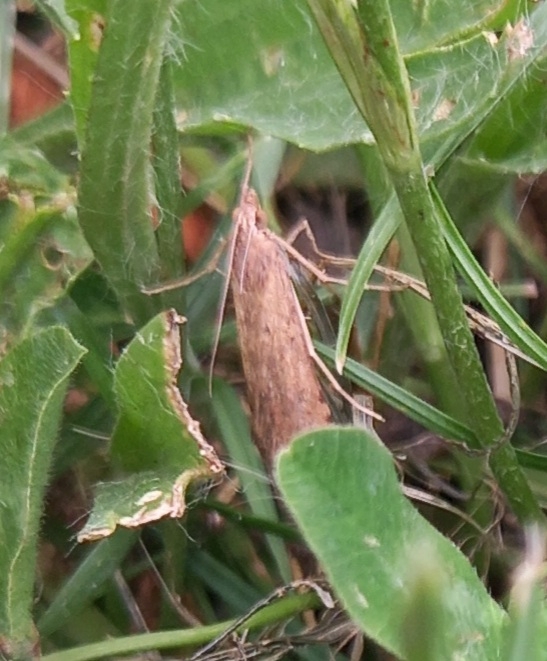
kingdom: Animalia
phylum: Arthropoda
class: Insecta
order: Lepidoptera
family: Crambidae
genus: Nomophila
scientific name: Nomophila noctuella
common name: Rush veneer
